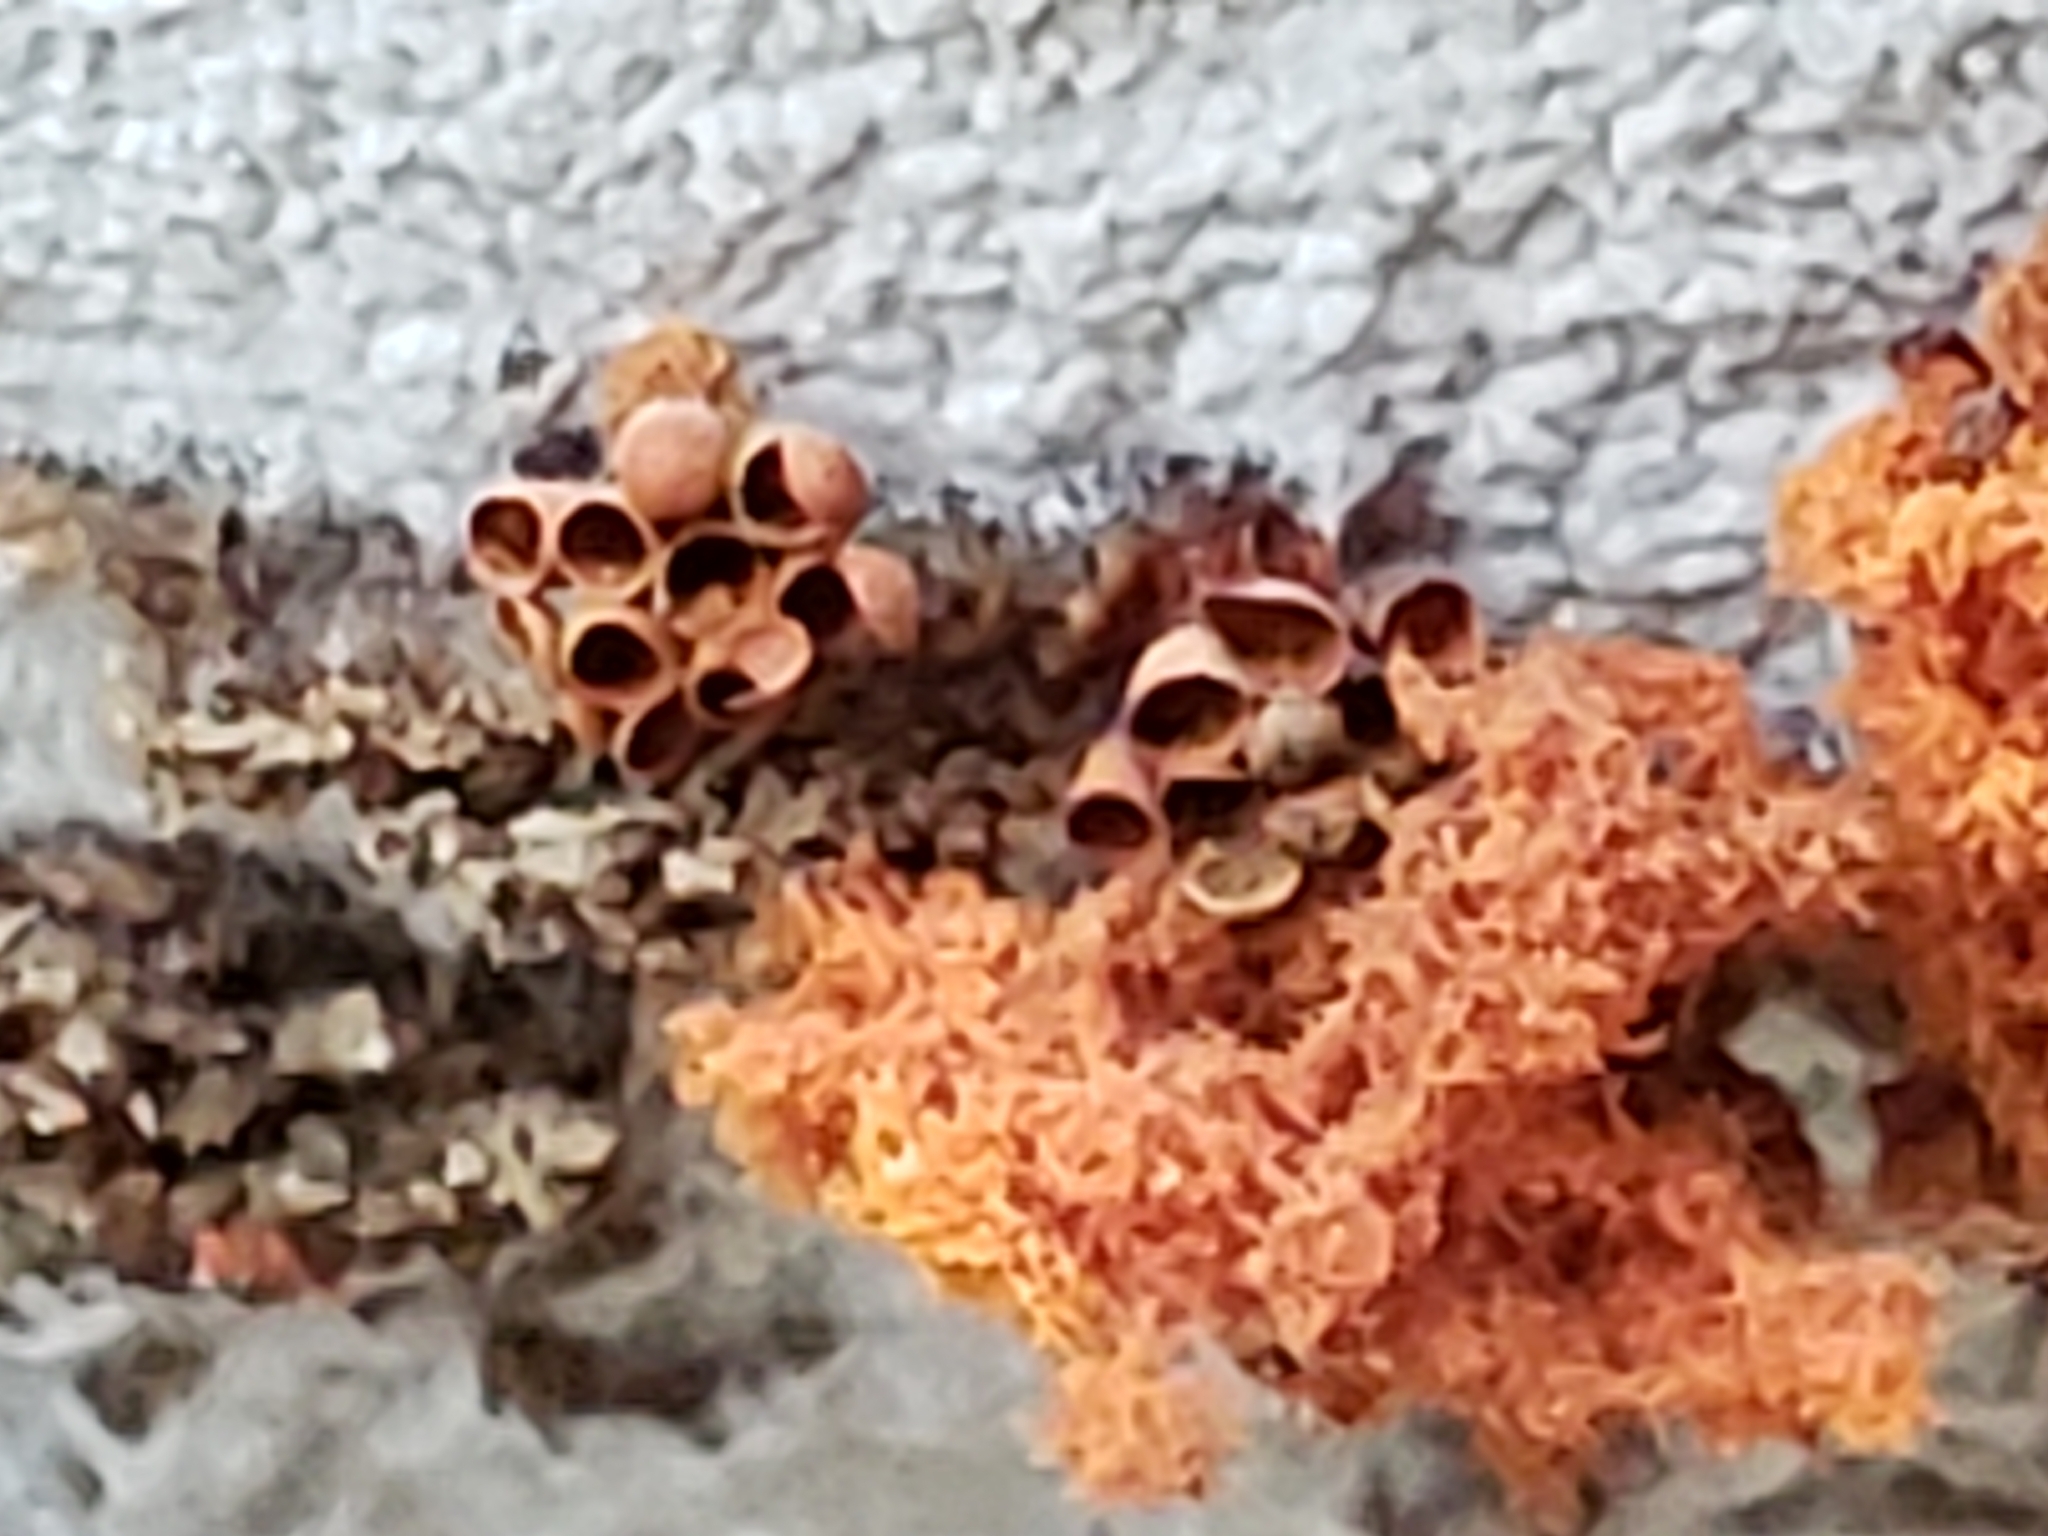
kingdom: Protozoa
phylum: Mycetozoa
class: Myxomycetes
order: Trichiales
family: Trichiaceae
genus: Metatrichia
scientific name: Metatrichia vesparia
